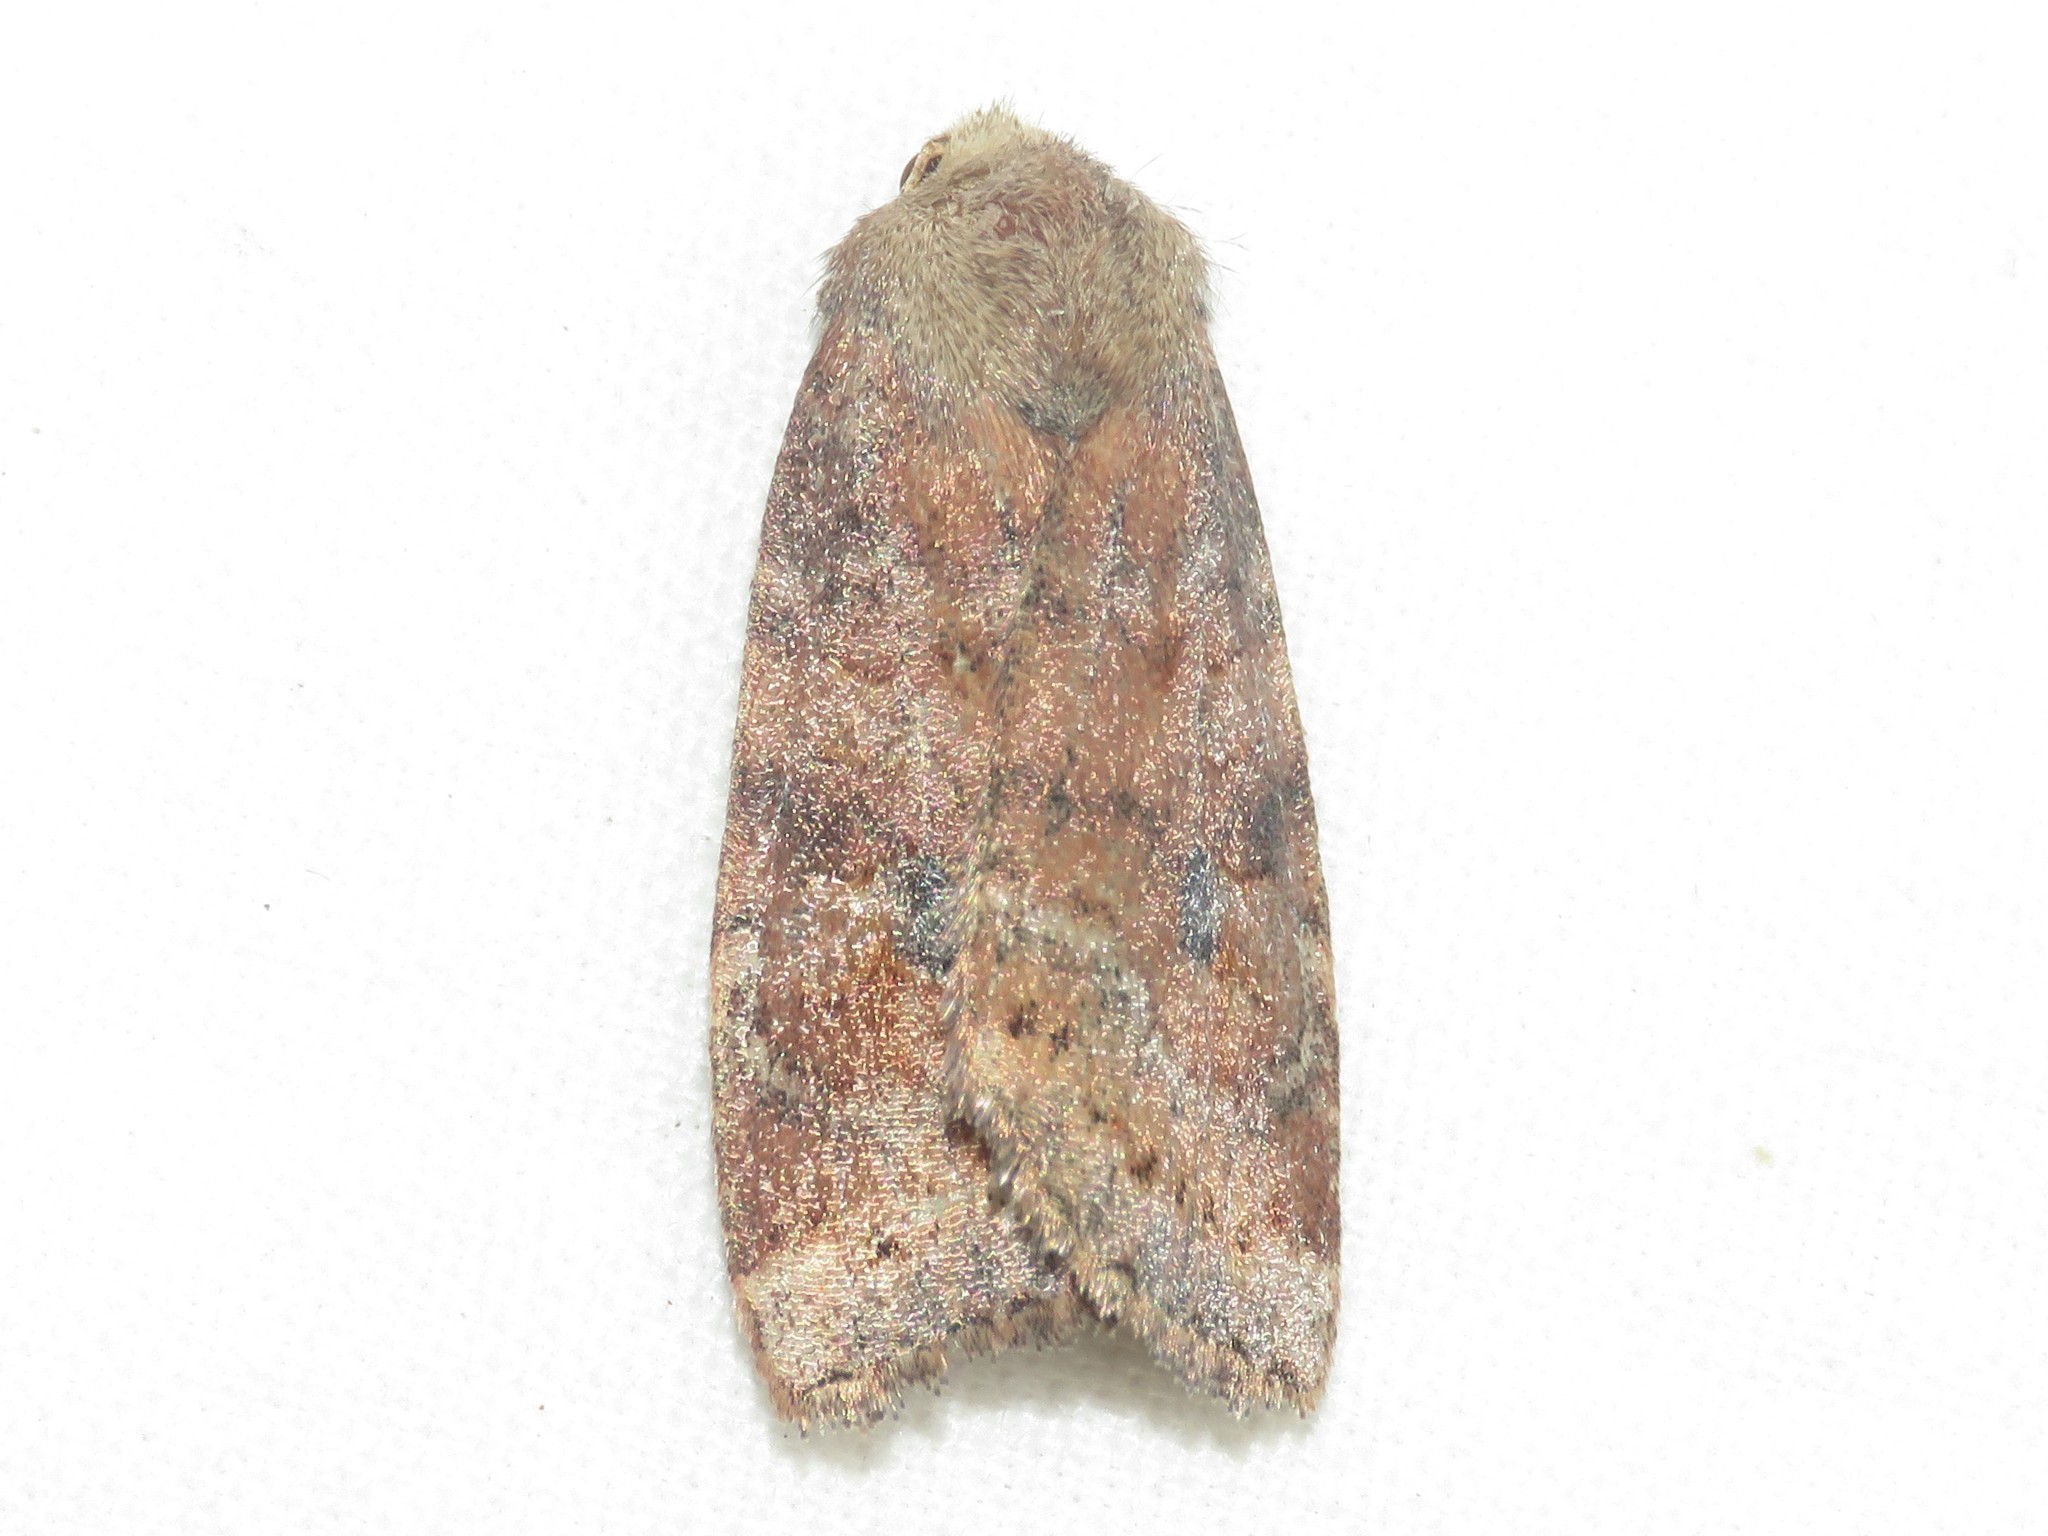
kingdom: Animalia
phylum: Arthropoda
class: Insecta
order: Lepidoptera
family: Noctuidae
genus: Anathix
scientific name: Anathix puta
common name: Puta sallow
